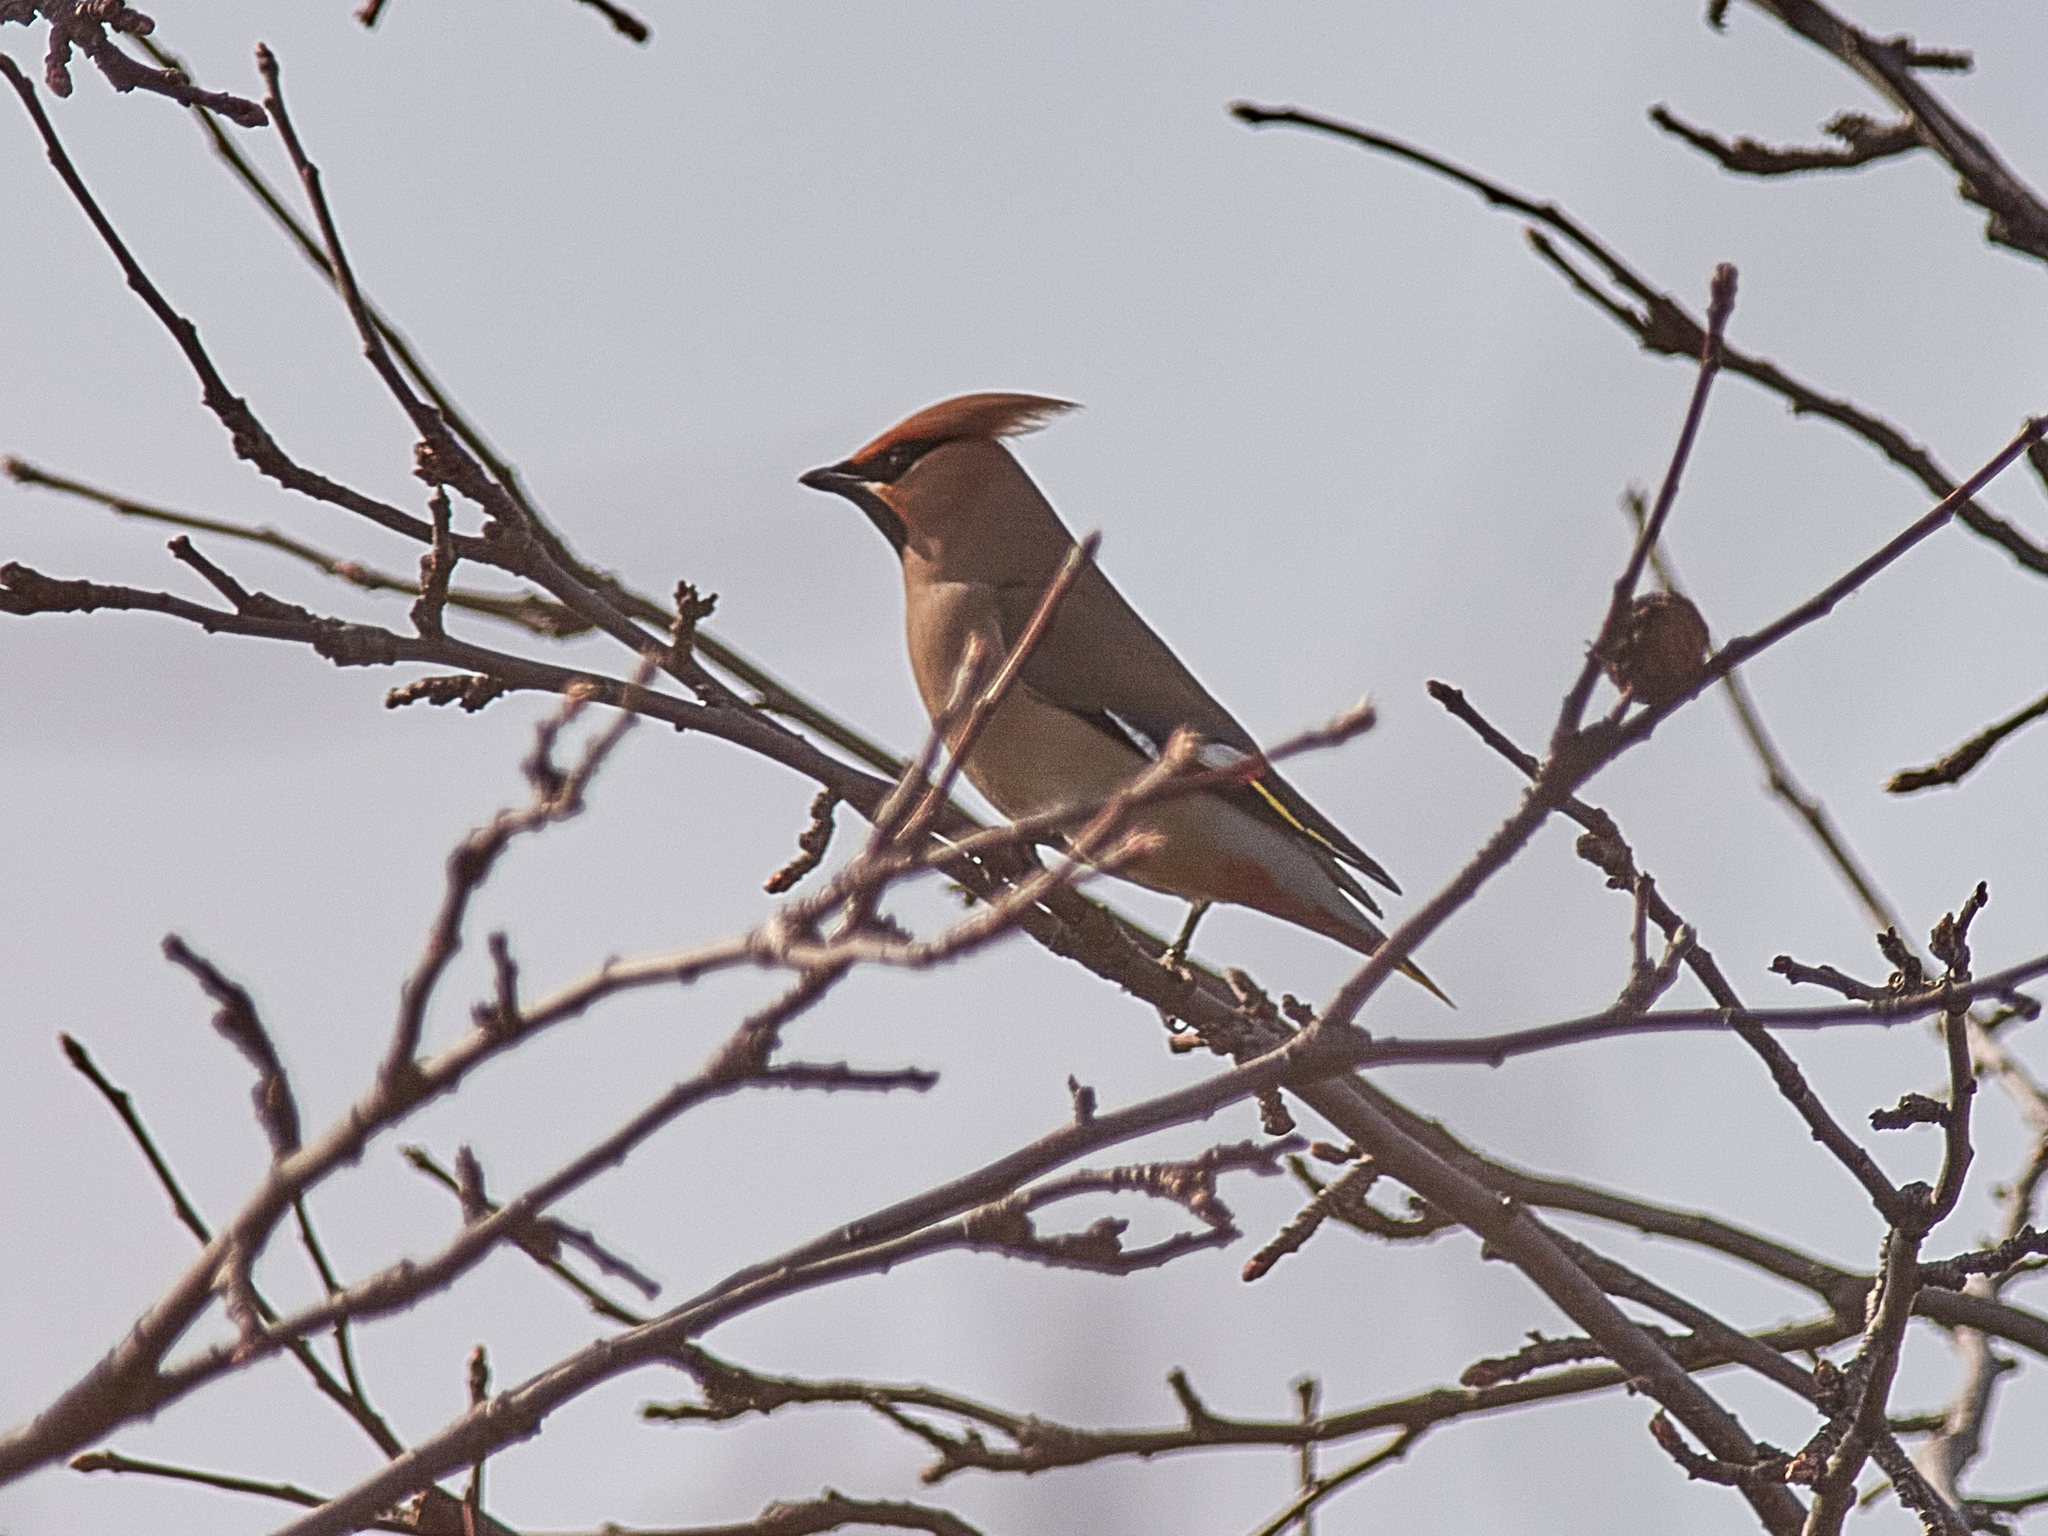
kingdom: Animalia
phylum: Chordata
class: Aves
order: Passeriformes
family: Bombycillidae
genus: Bombycilla
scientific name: Bombycilla garrulus
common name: Bohemian waxwing
